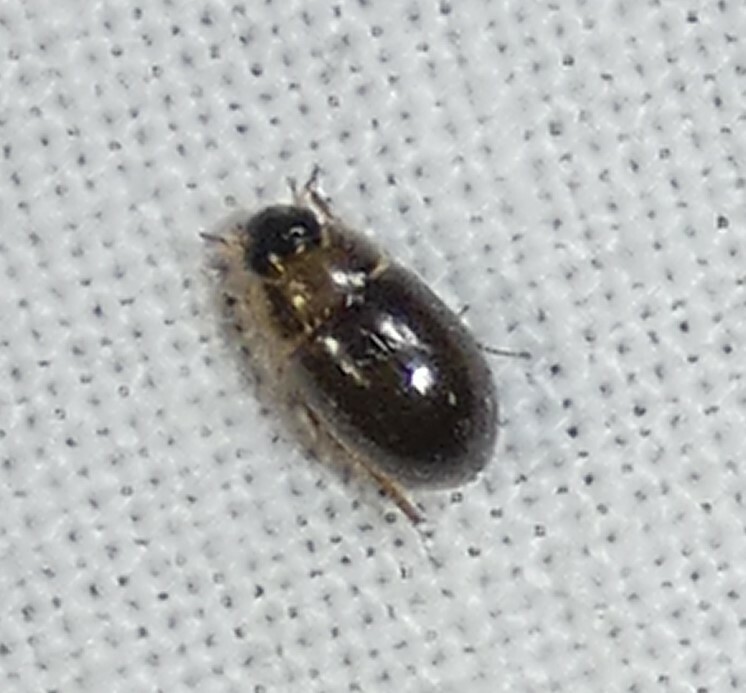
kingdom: Animalia
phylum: Arthropoda
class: Insecta
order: Coleoptera
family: Hydrophilidae
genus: Enochrus
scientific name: Enochrus
